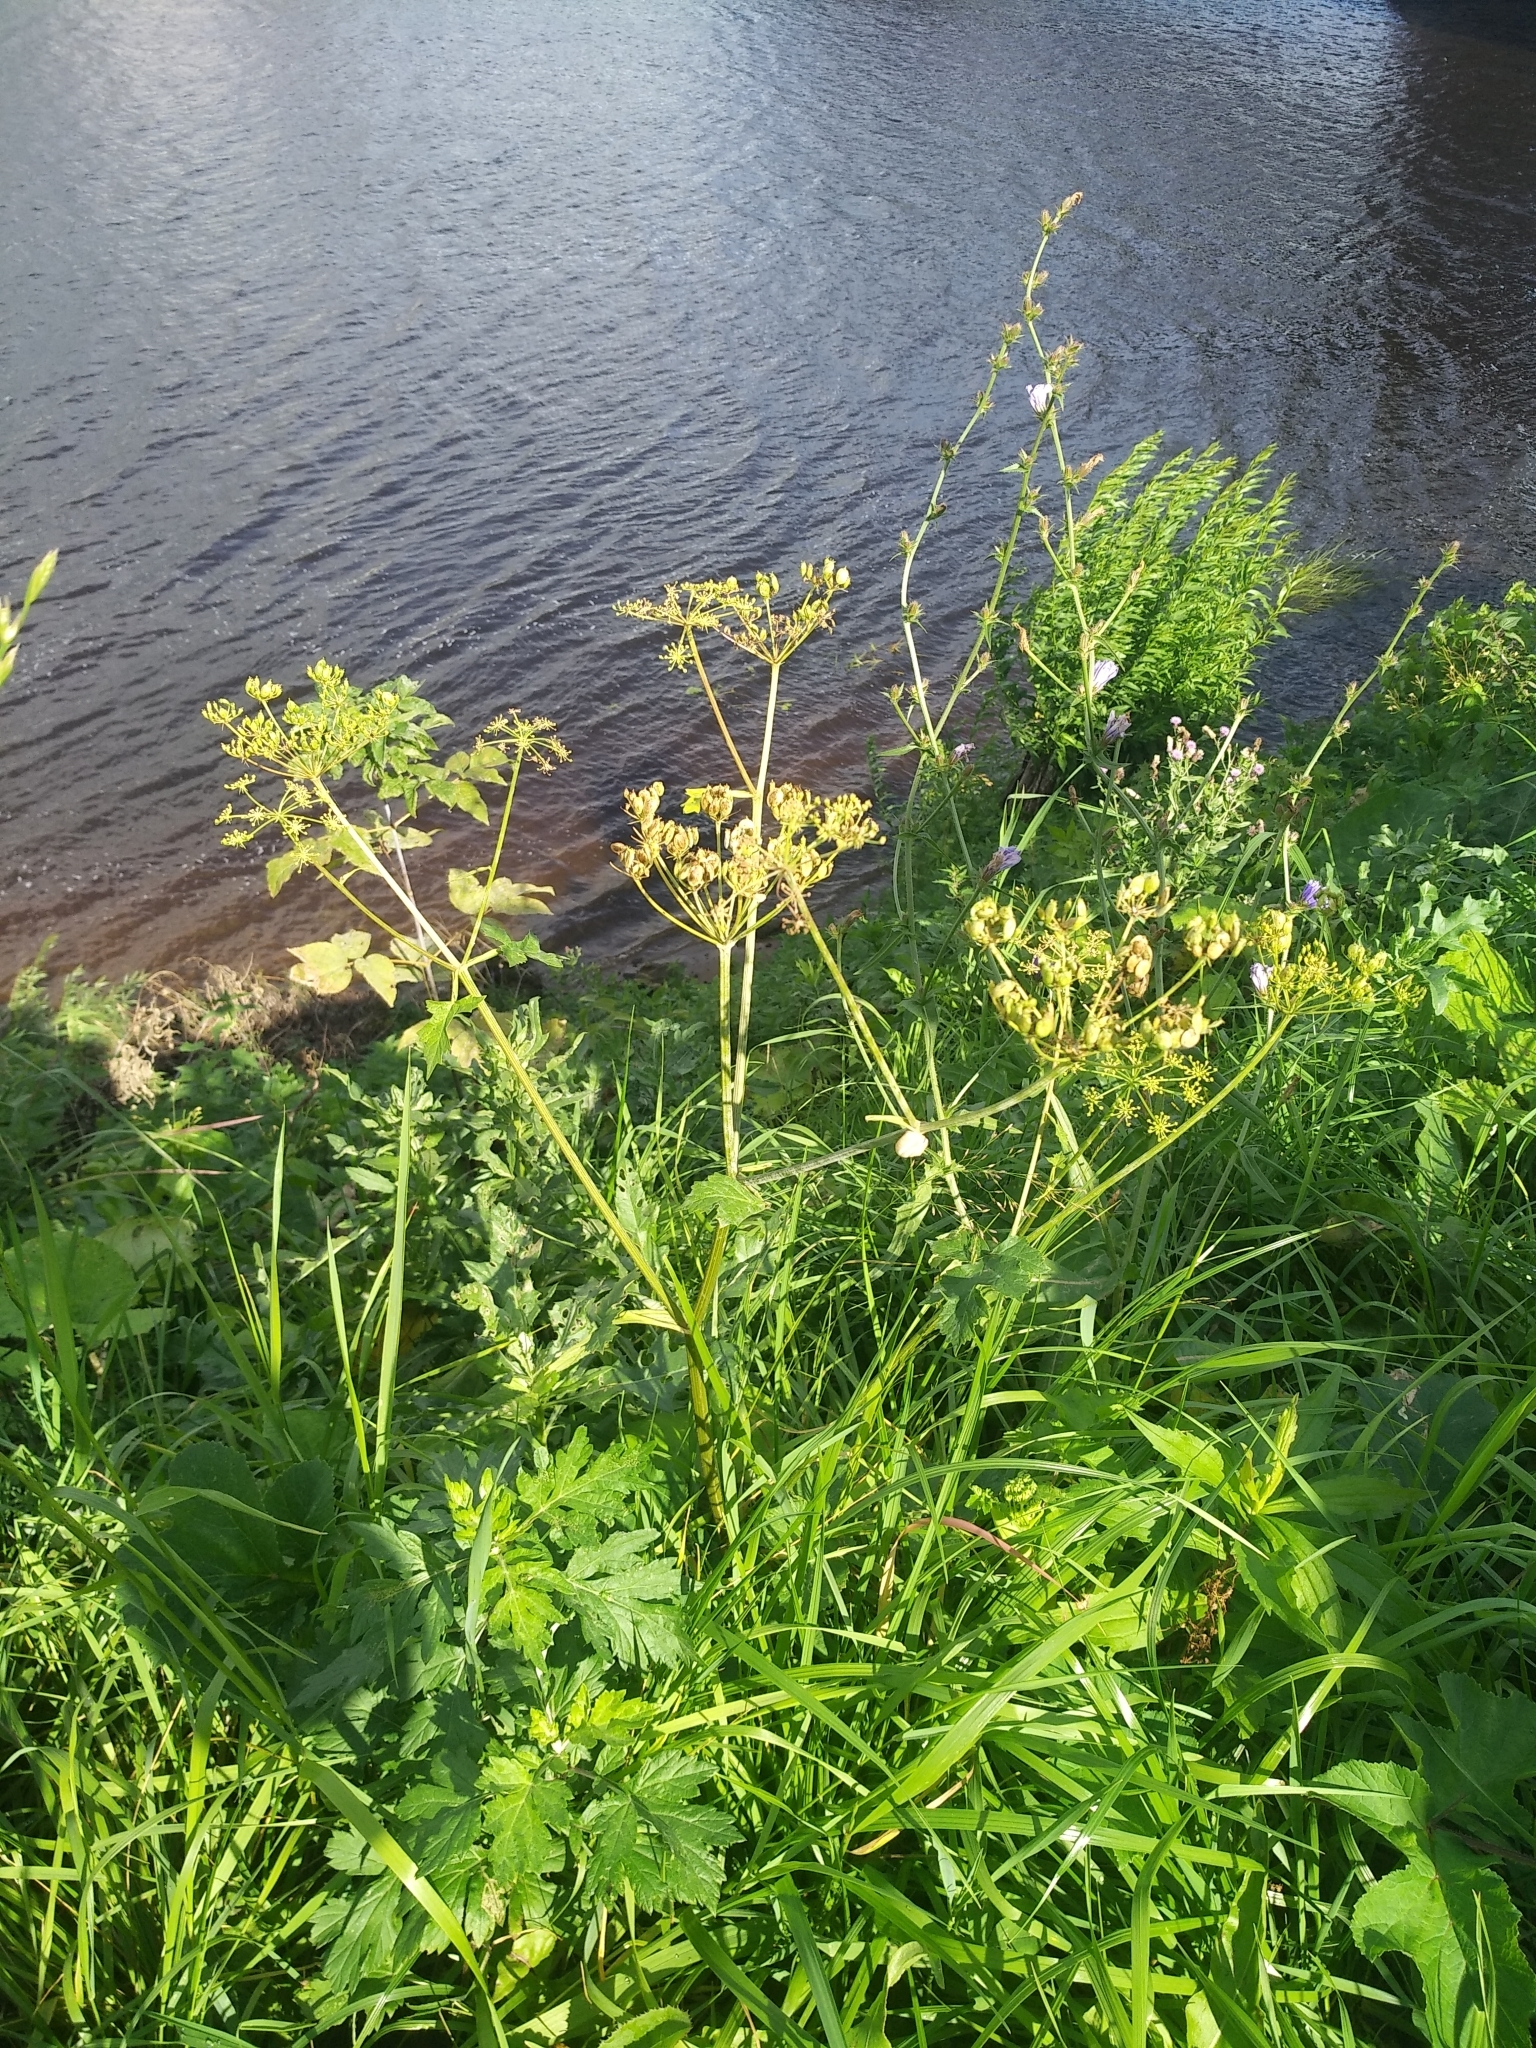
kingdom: Plantae
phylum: Tracheophyta
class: Magnoliopsida
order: Apiales
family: Apiaceae
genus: Pastinaca
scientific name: Pastinaca sativa
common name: Wild parsnip
